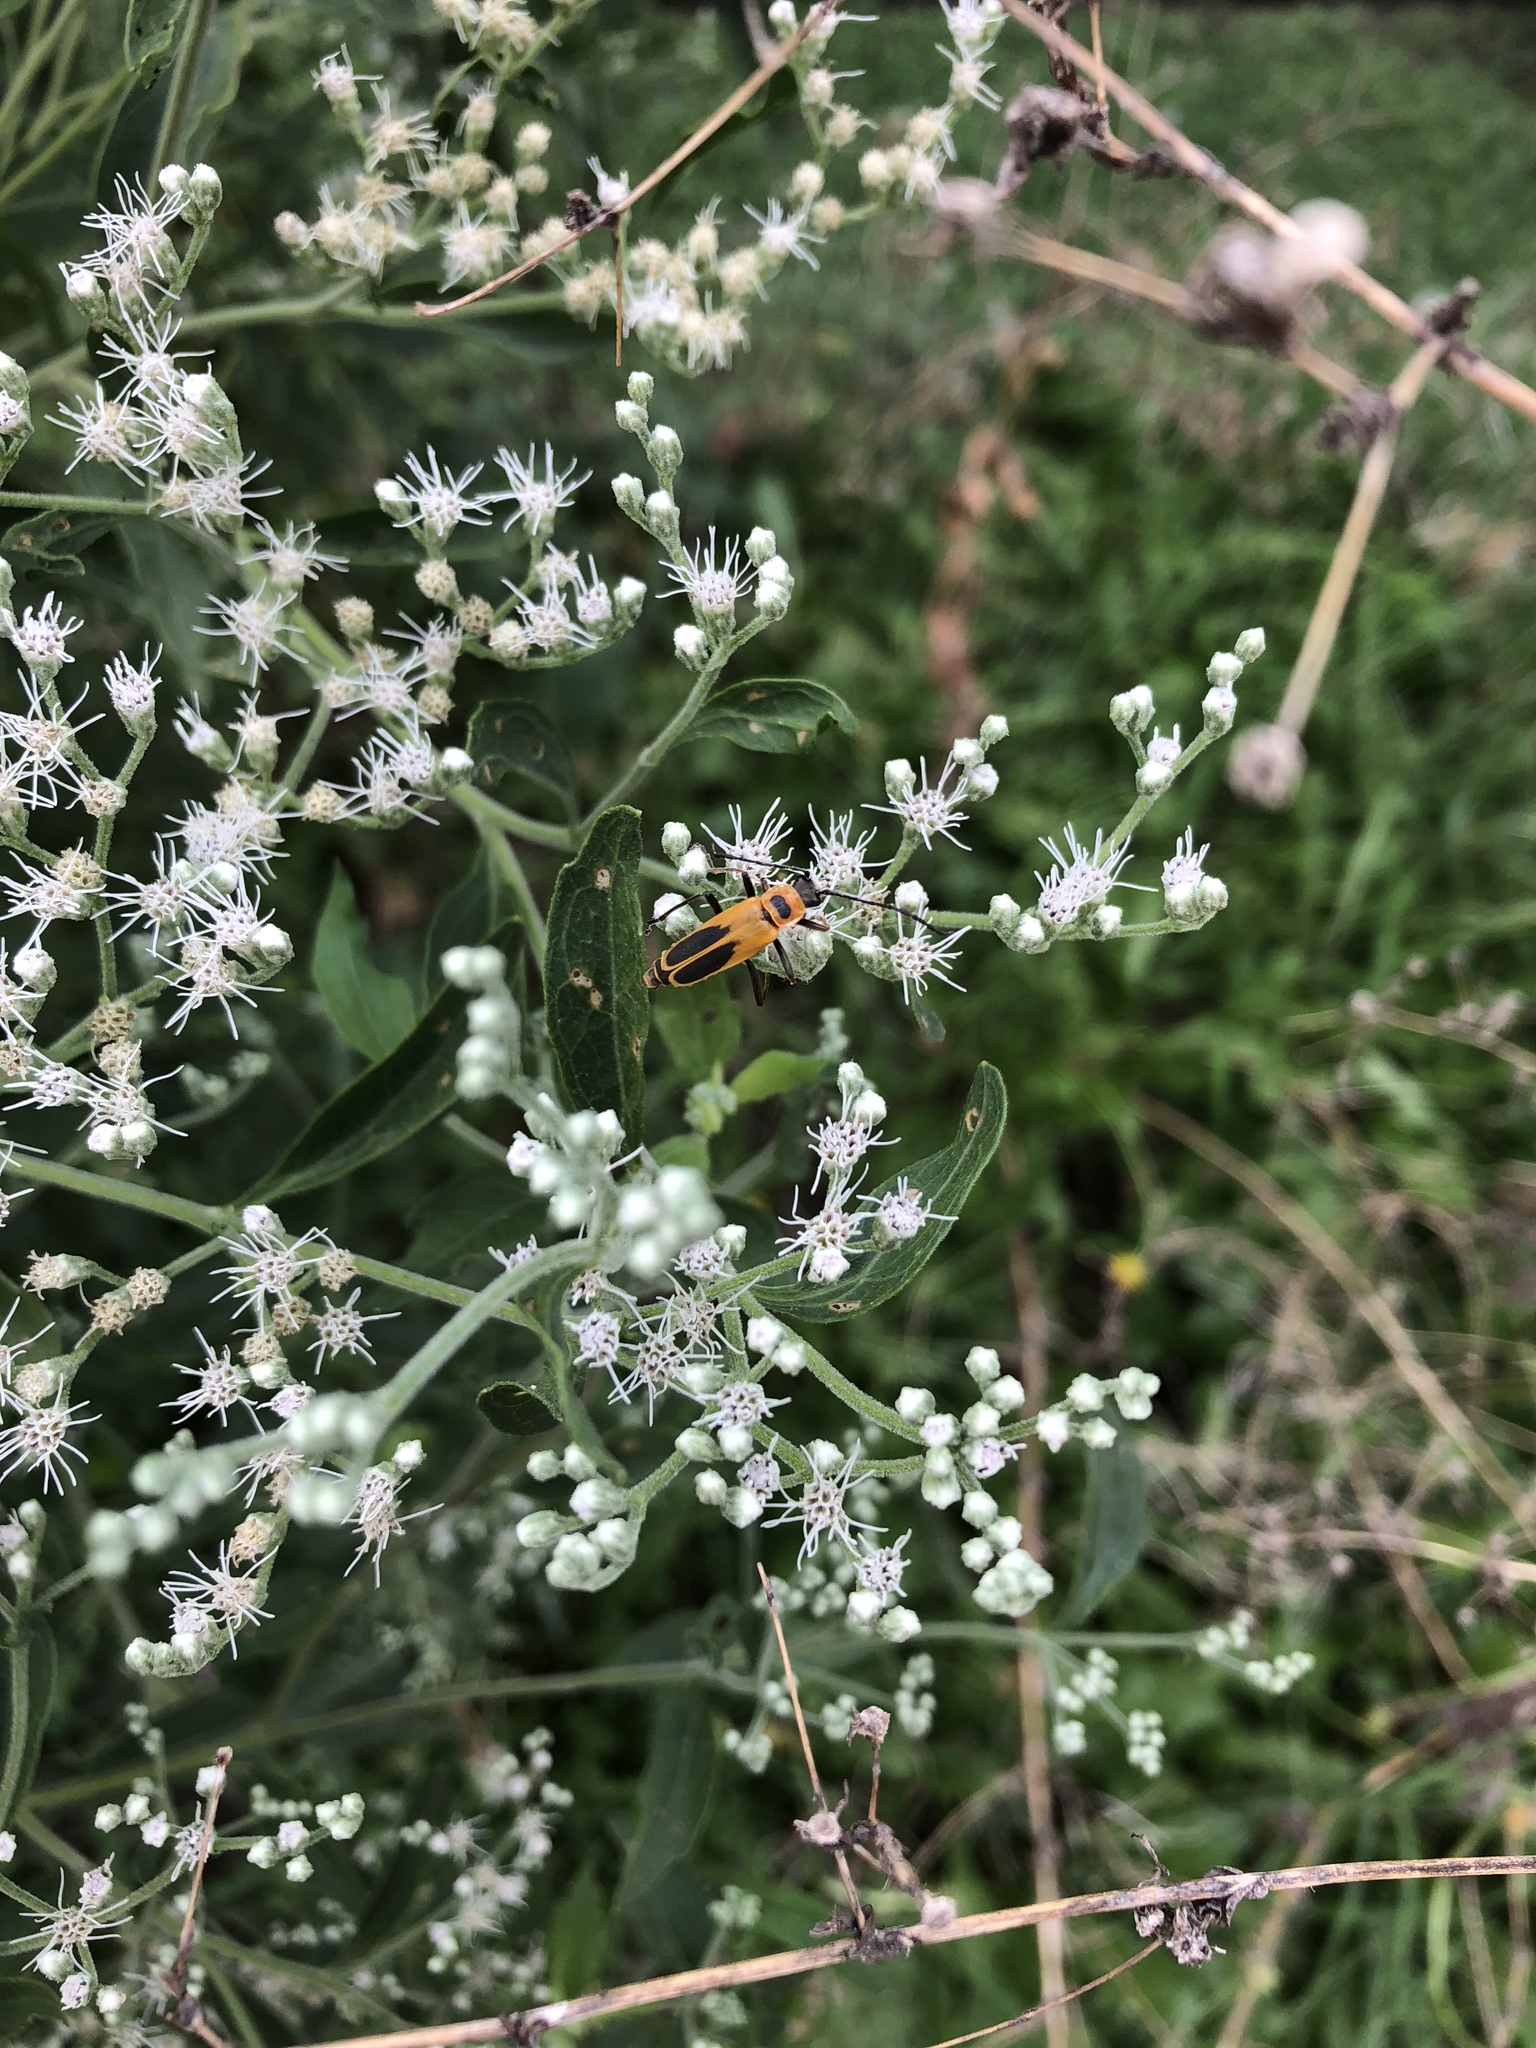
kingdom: Animalia
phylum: Arthropoda
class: Insecta
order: Coleoptera
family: Cantharidae
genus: Chauliognathus
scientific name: Chauliognathus pensylvanicus
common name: Goldenrod soldier beetle
